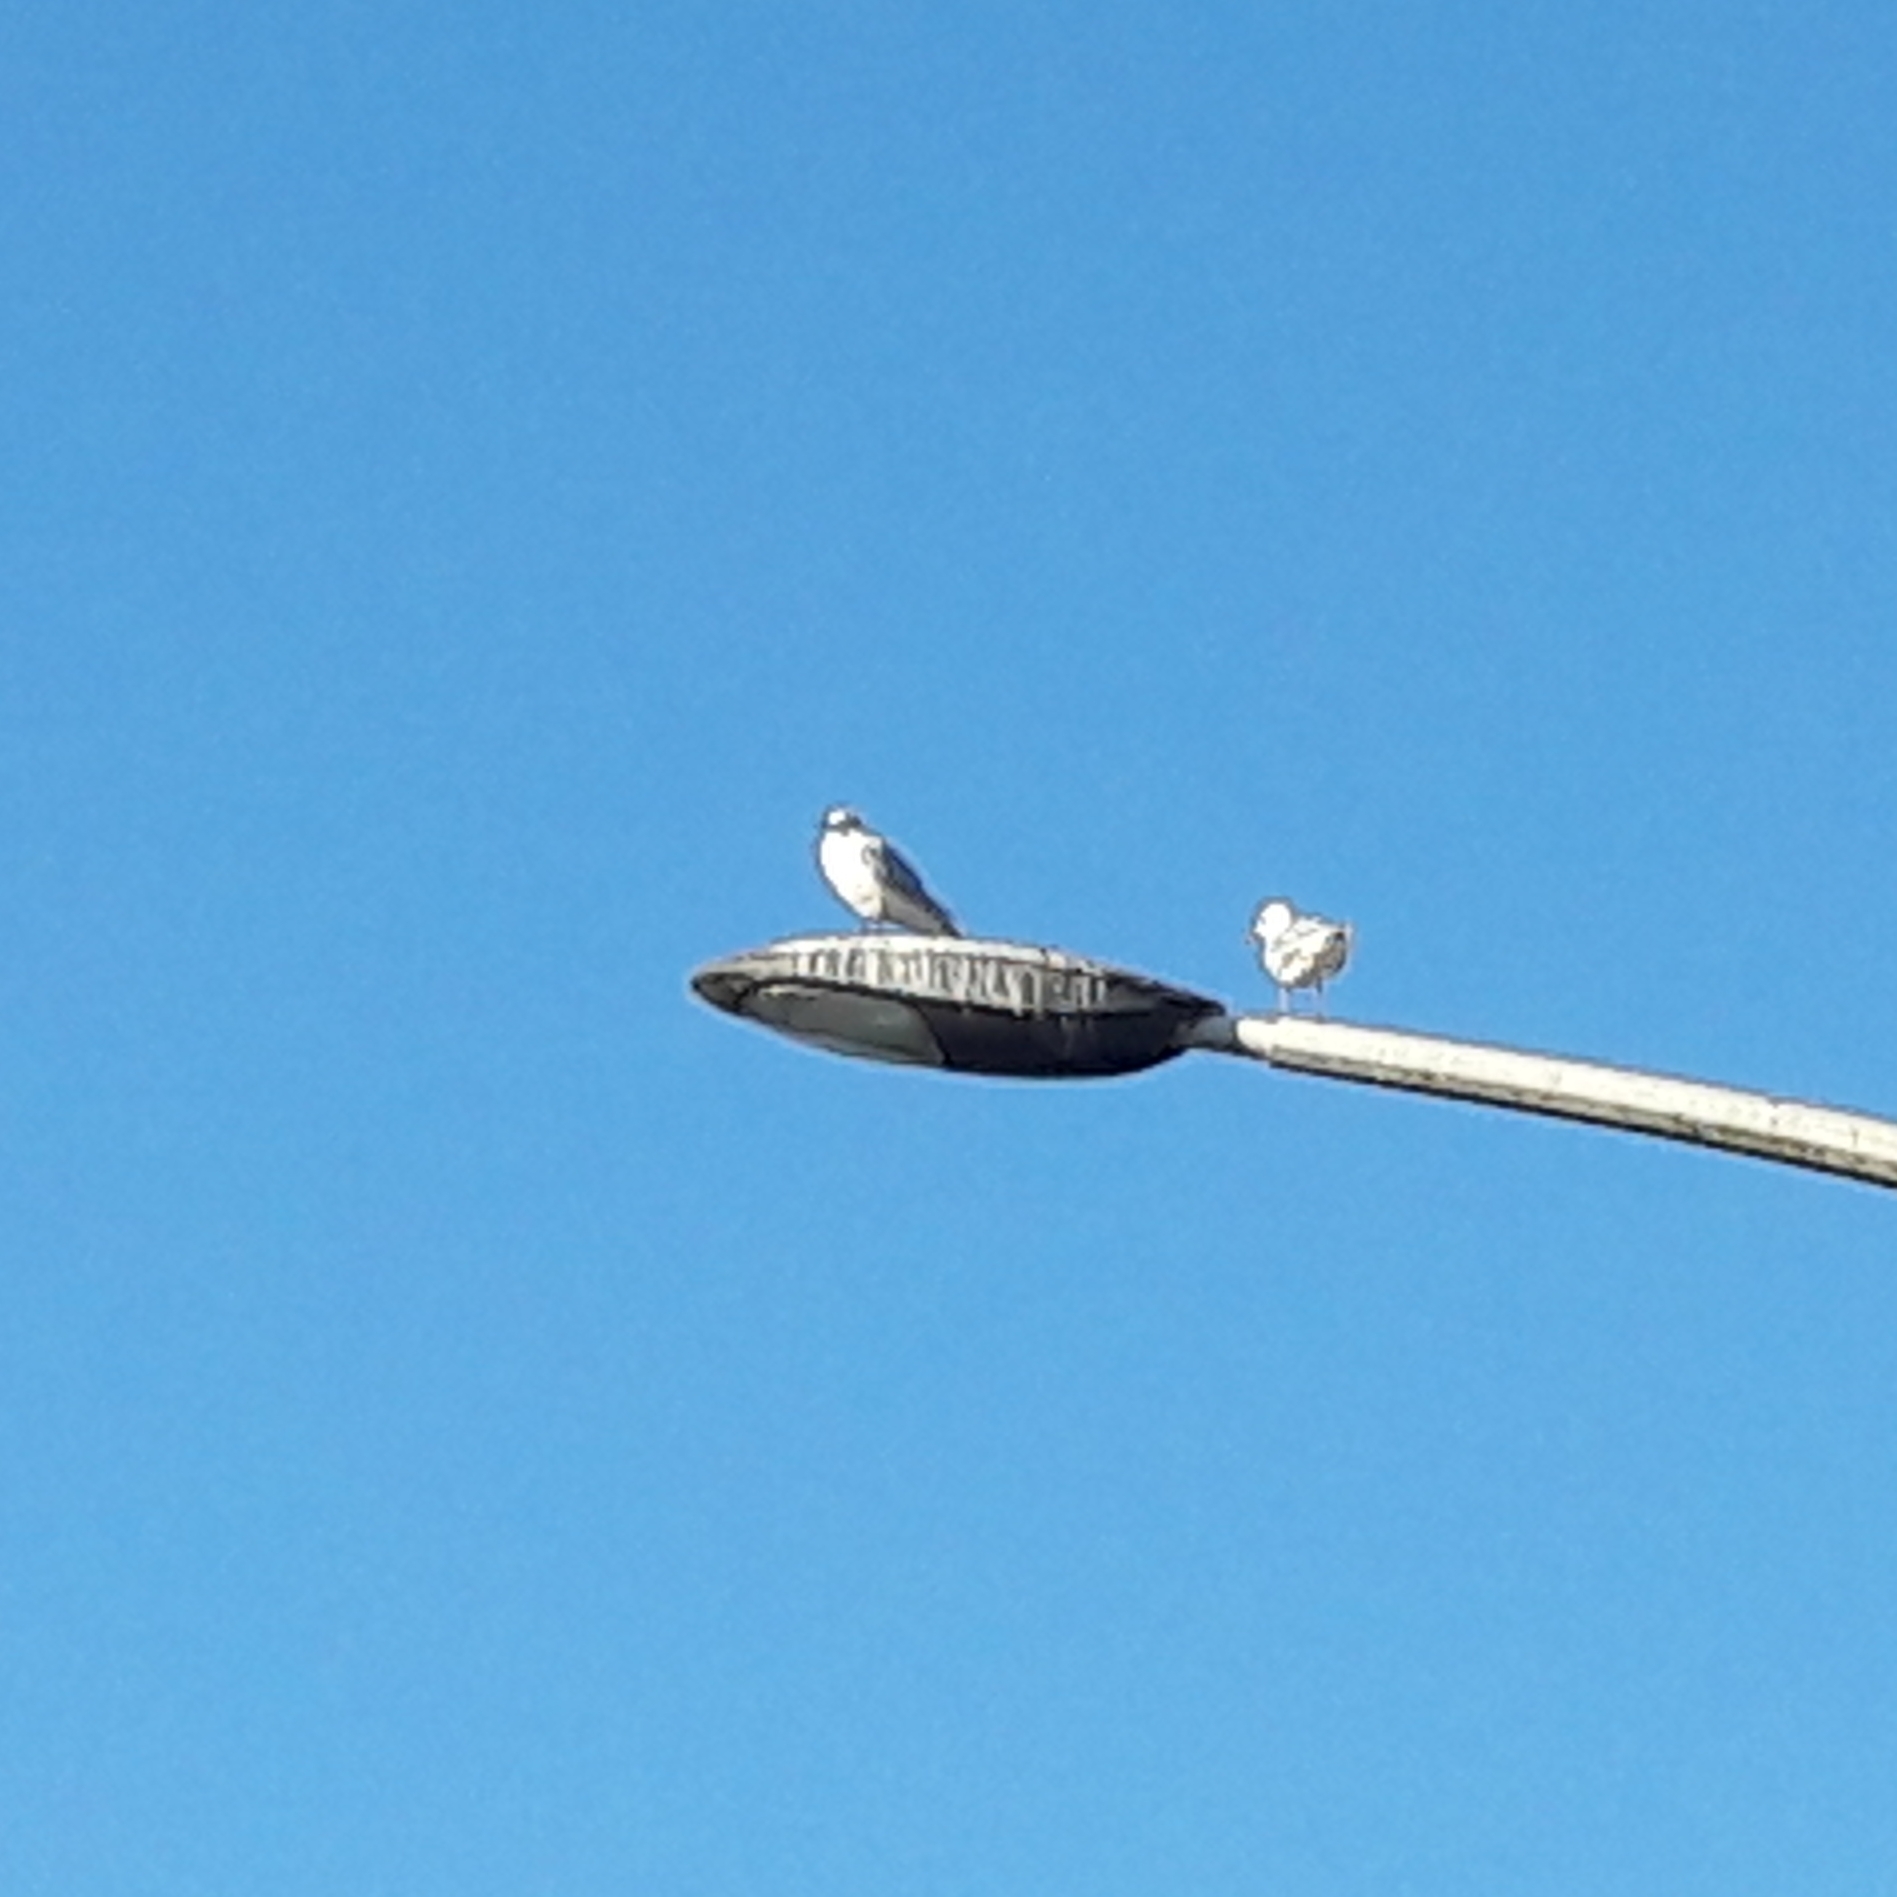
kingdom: Animalia
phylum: Chordata
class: Aves
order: Charadriiformes
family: Laridae
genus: Chroicocephalus
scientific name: Chroicocephalus ridibundus
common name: Black-headed gull
